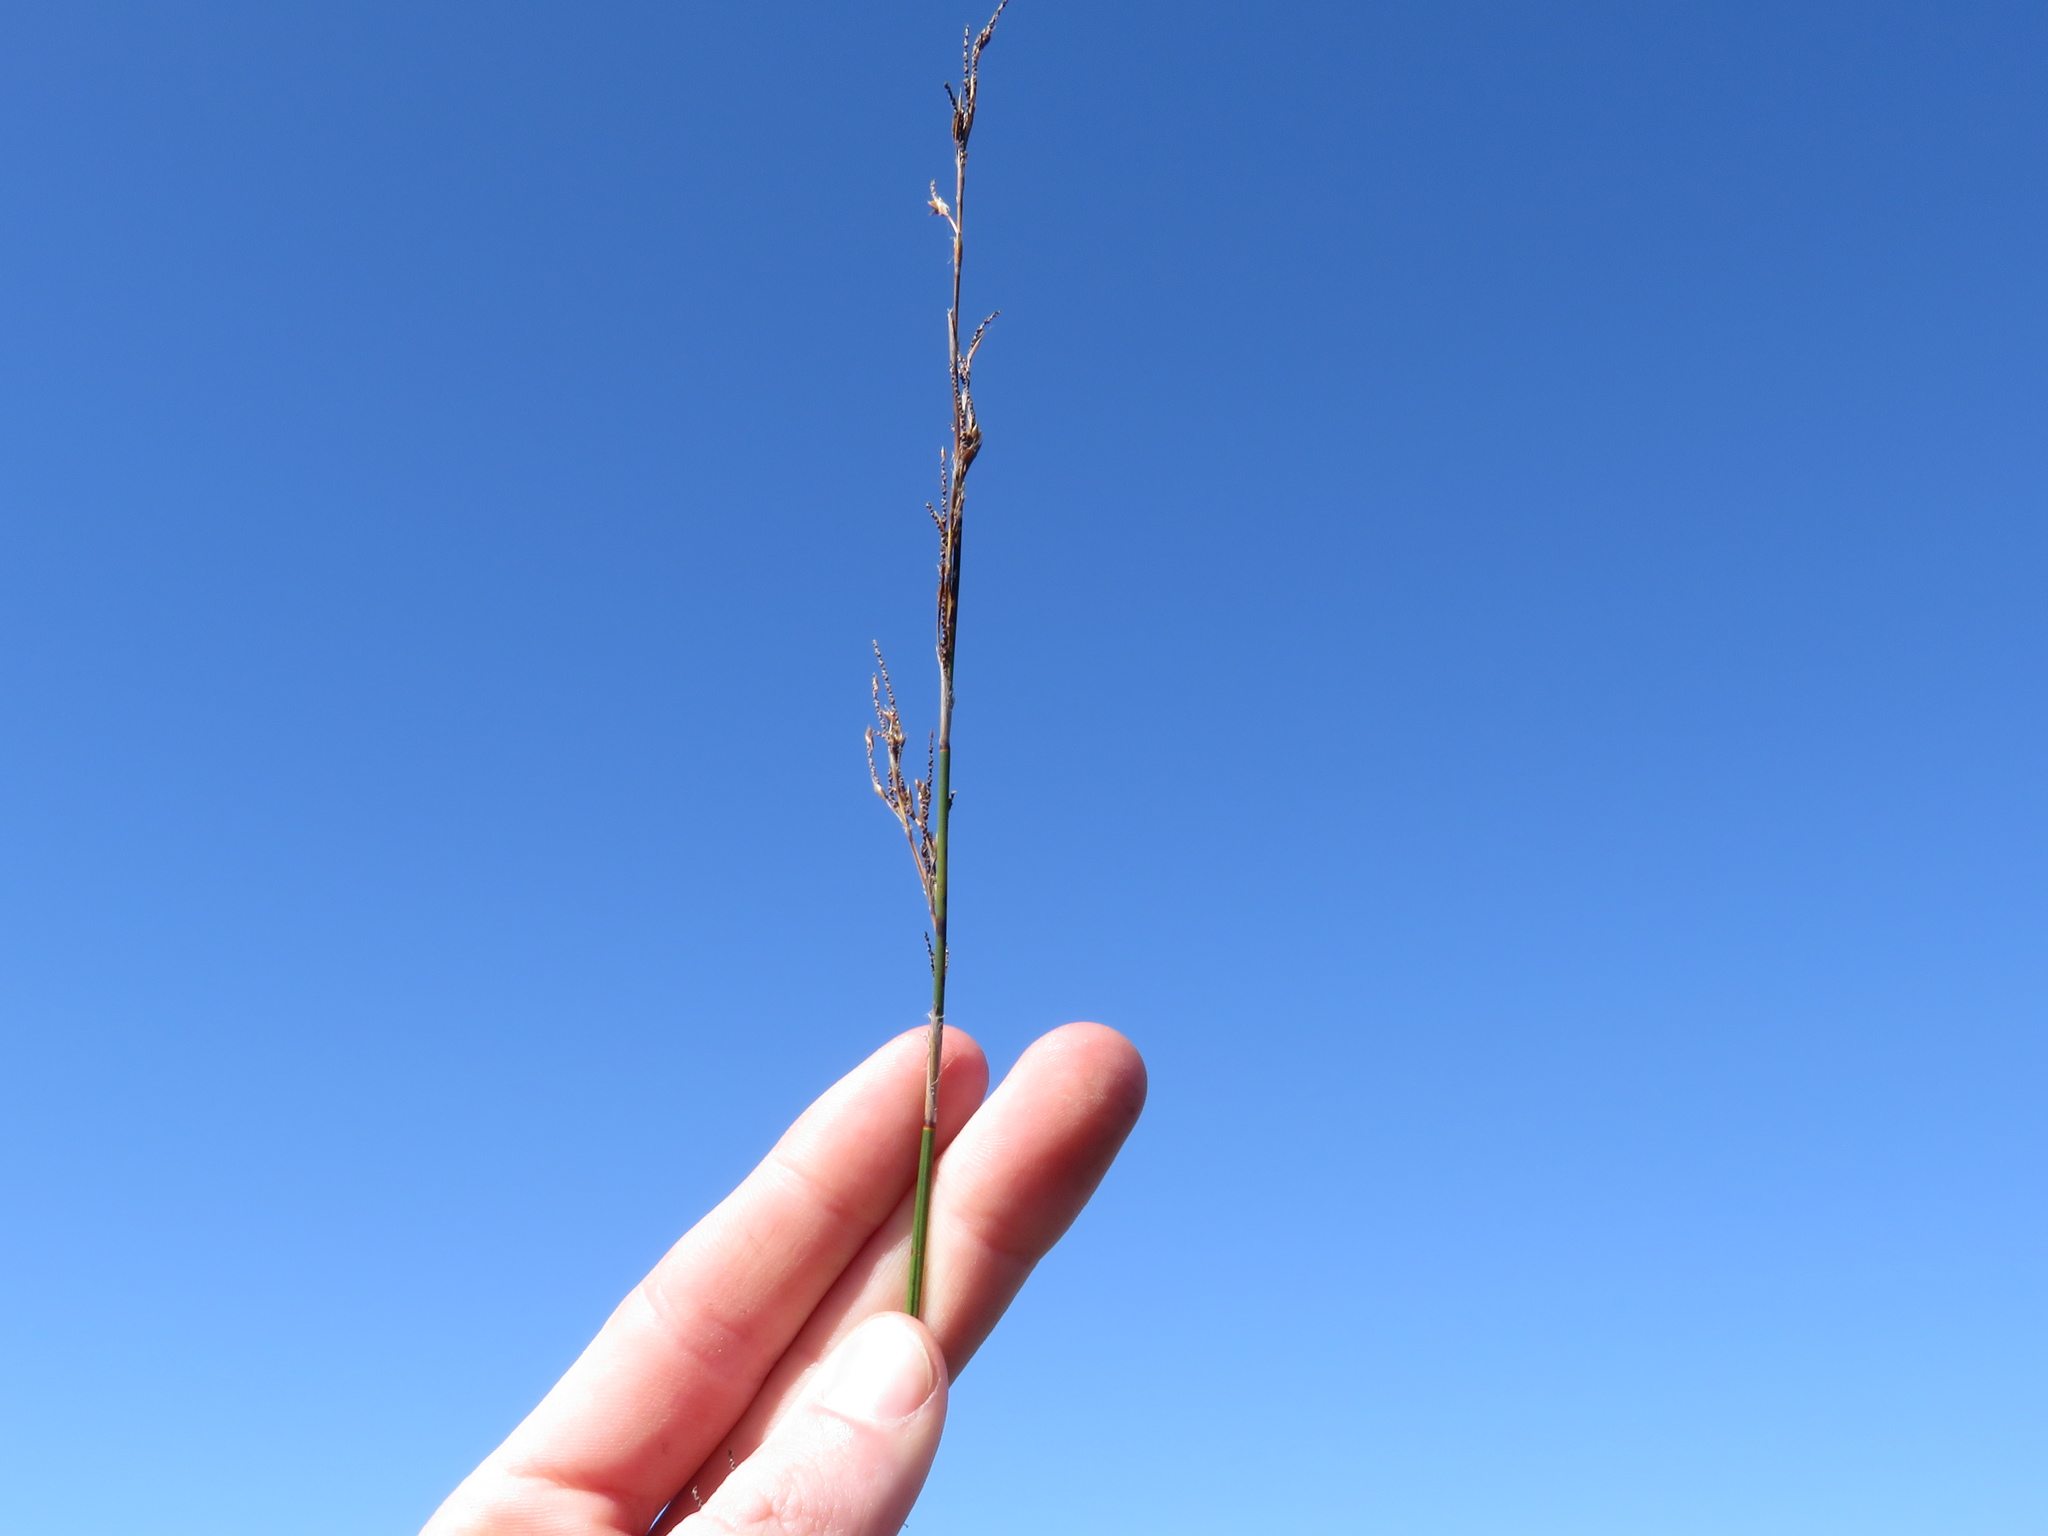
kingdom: Plantae
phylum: Tracheophyta
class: Liliopsida
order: Poales
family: Restionaceae
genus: Thamnochortus
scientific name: Thamnochortus insignis
